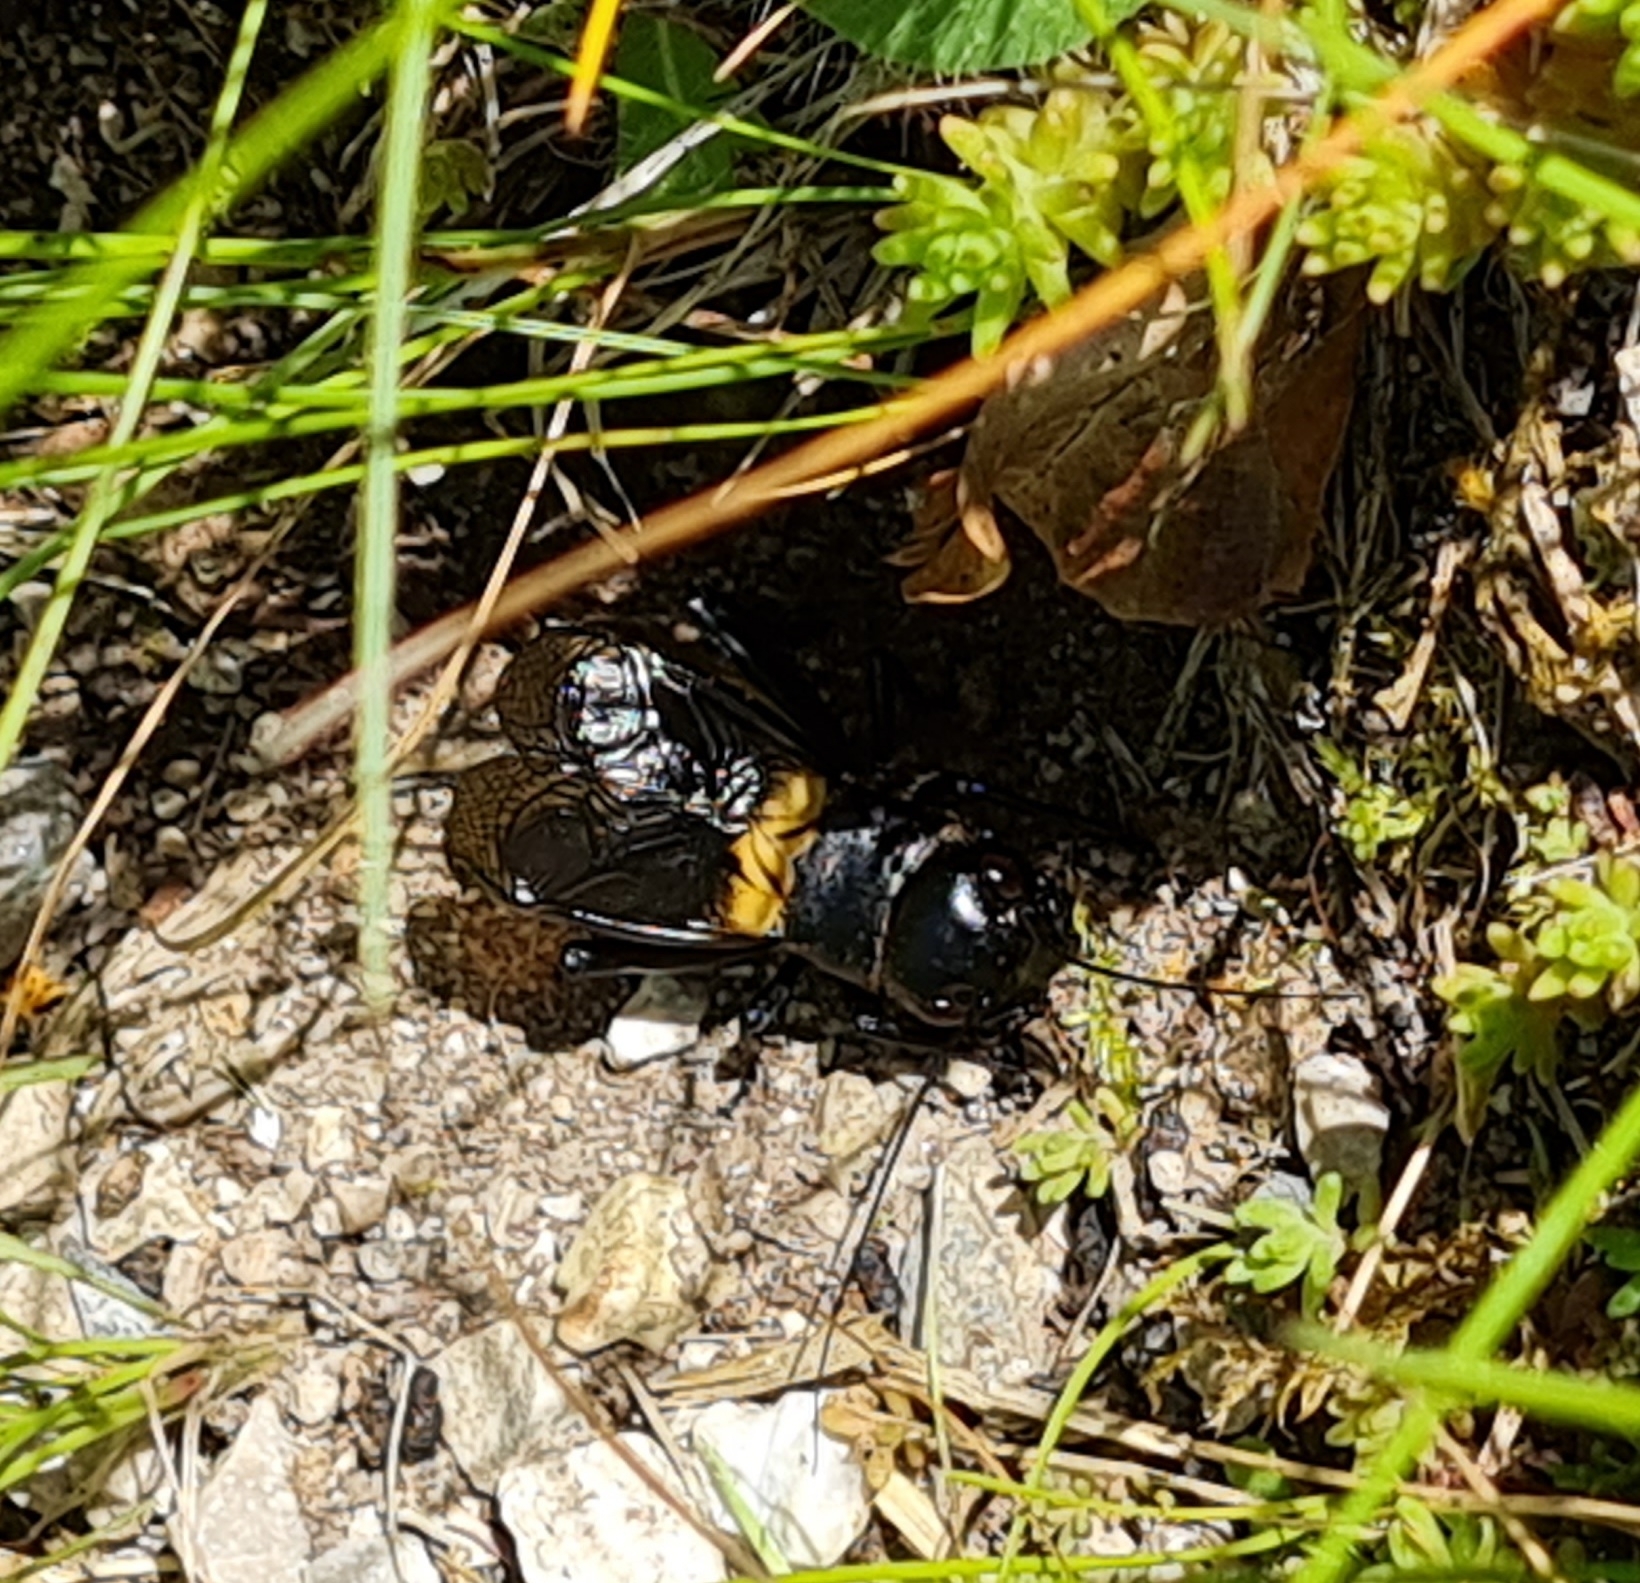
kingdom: Animalia
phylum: Arthropoda
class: Insecta
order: Orthoptera
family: Gryllidae
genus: Gryllus
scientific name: Gryllus campestris
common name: Field cricket
